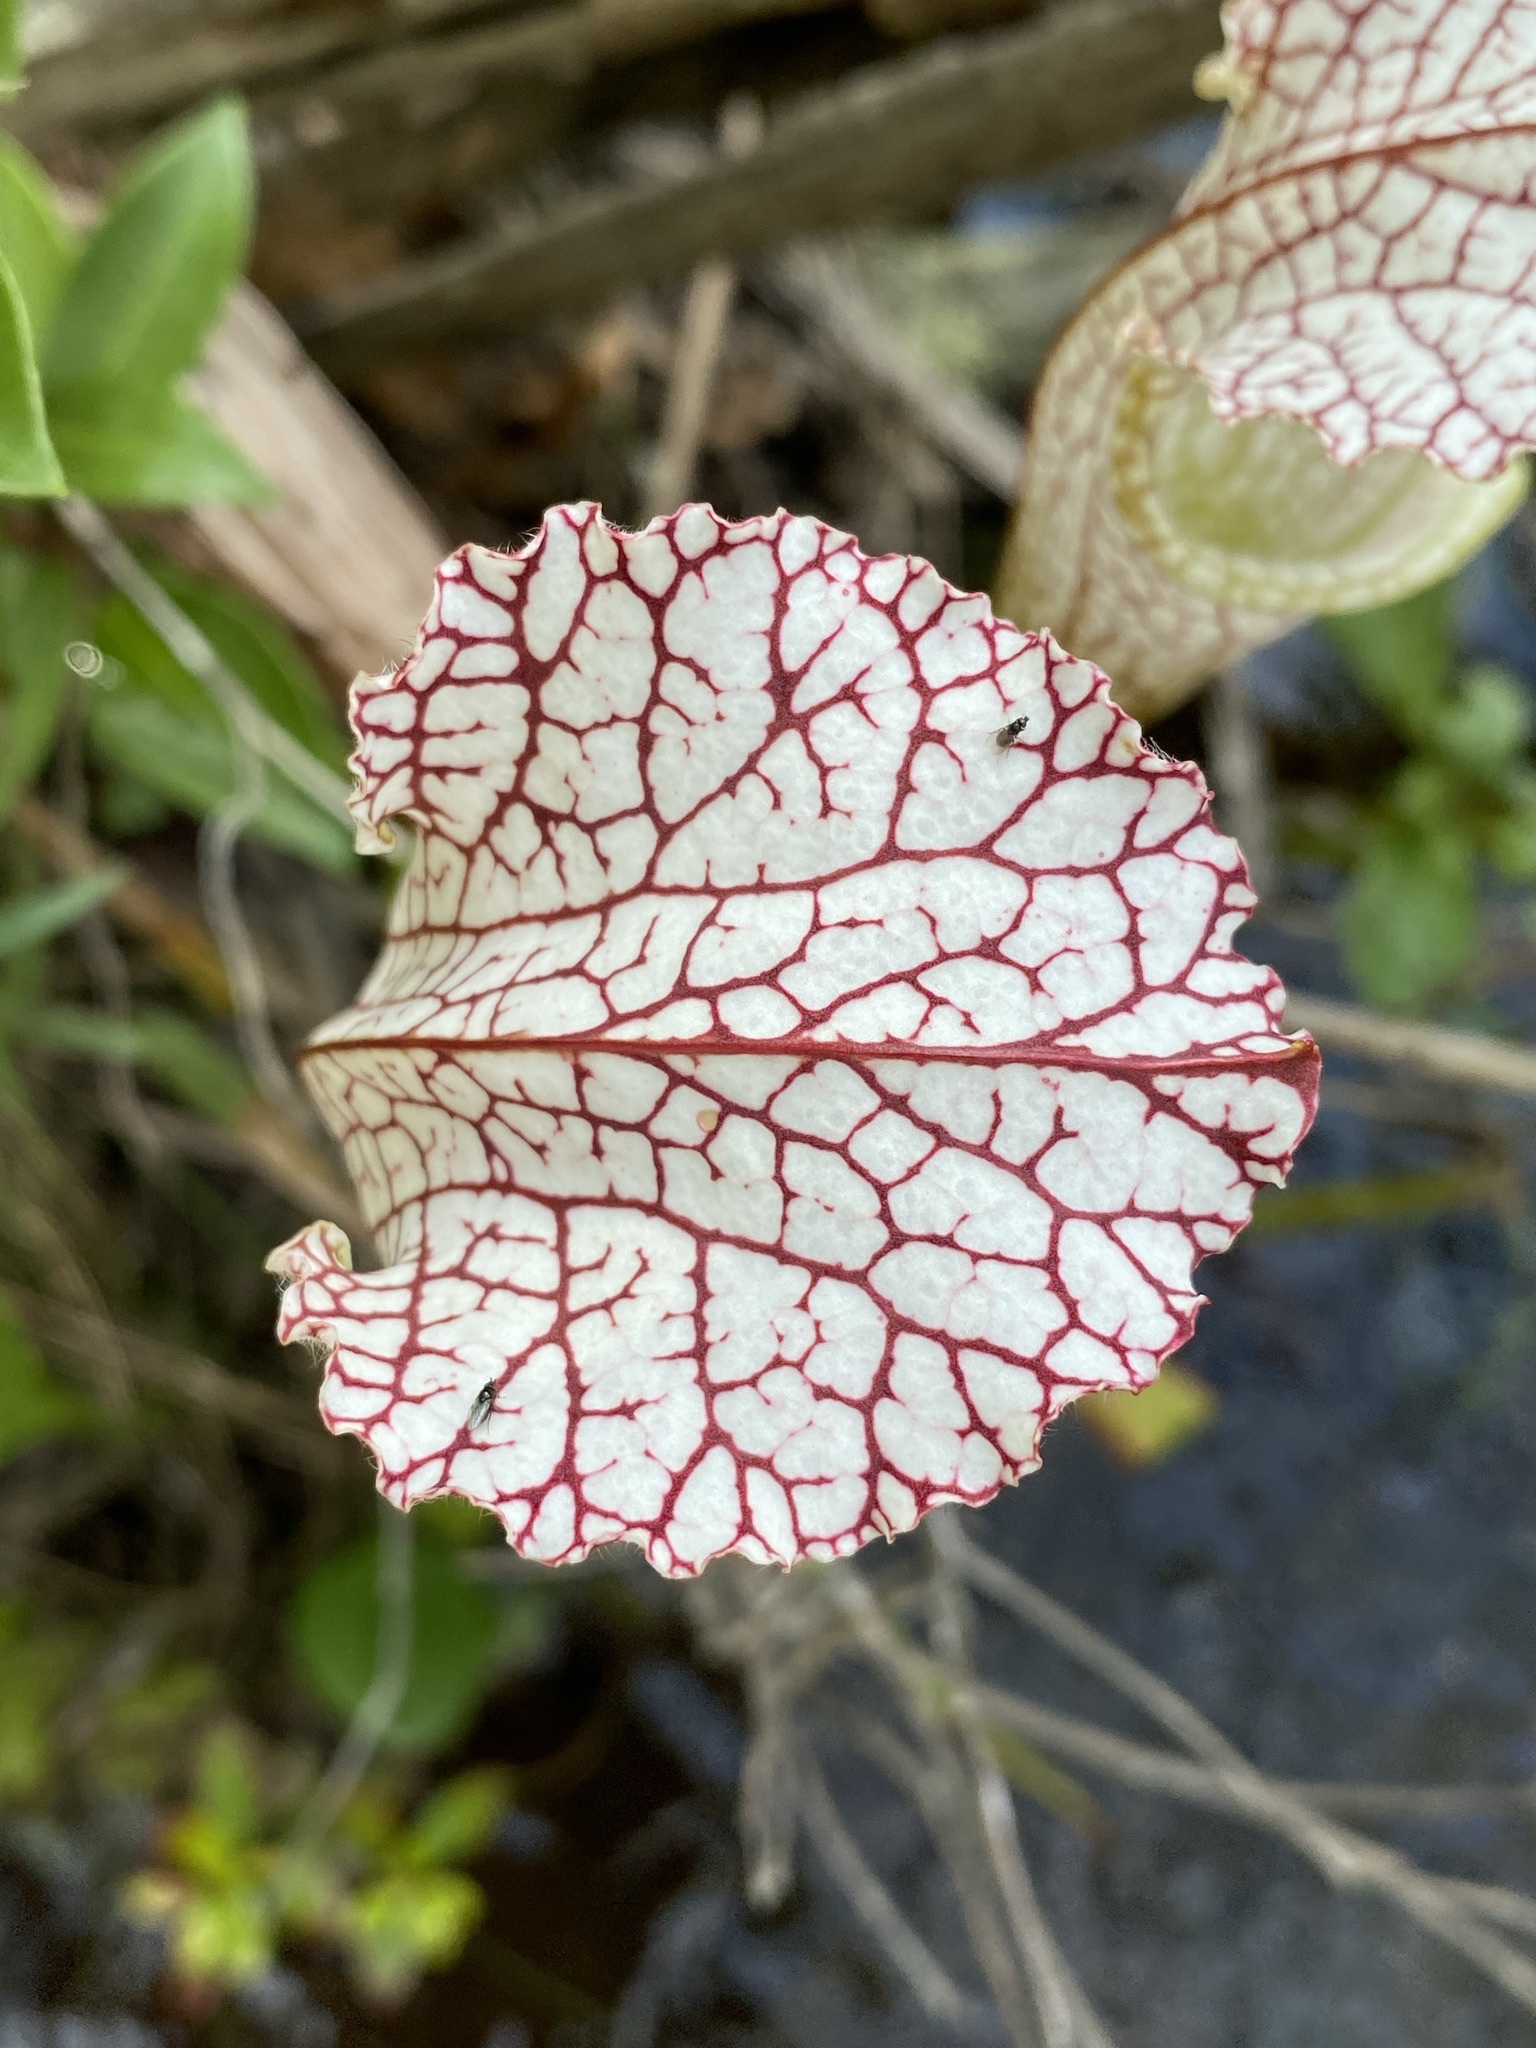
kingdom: Plantae
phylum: Tracheophyta
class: Magnoliopsida
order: Ericales
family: Sarraceniaceae
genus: Sarracenia
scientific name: Sarracenia leucophylla
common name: Purple trumpetleaf
